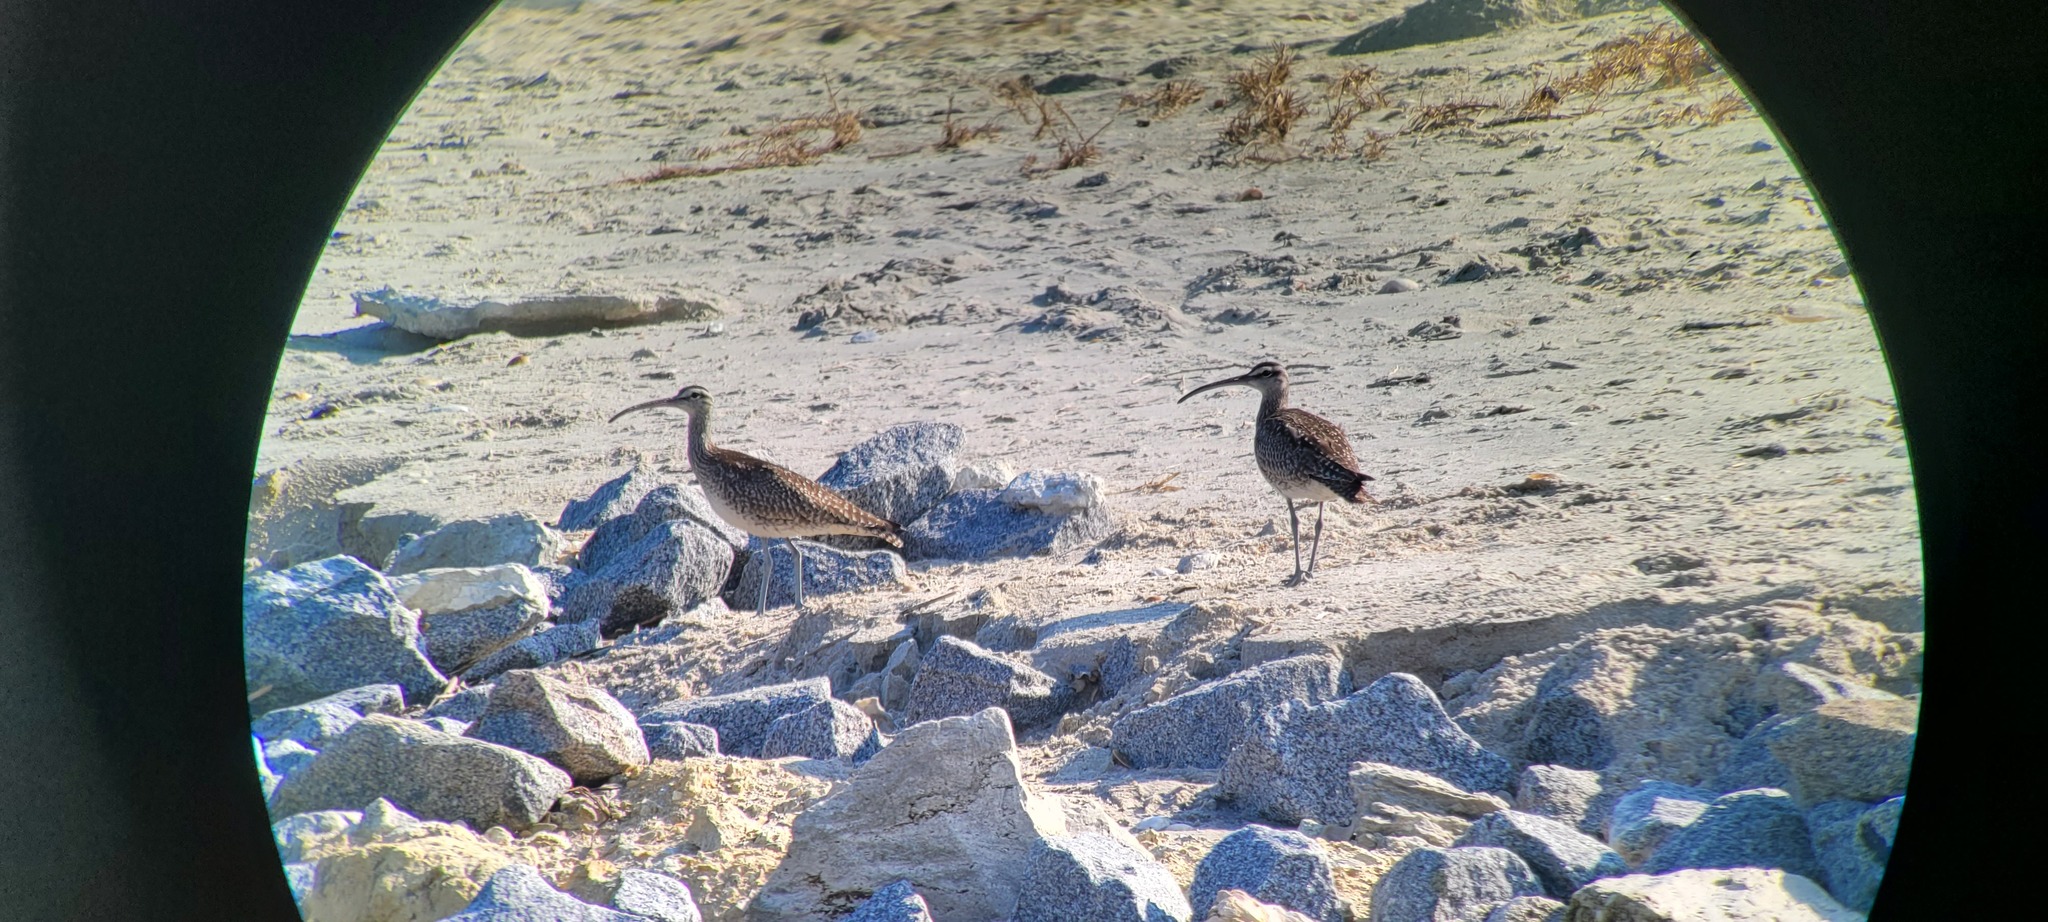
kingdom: Animalia
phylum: Chordata
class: Aves
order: Charadriiformes
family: Scolopacidae
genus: Numenius
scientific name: Numenius phaeopus
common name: Whimbrel
